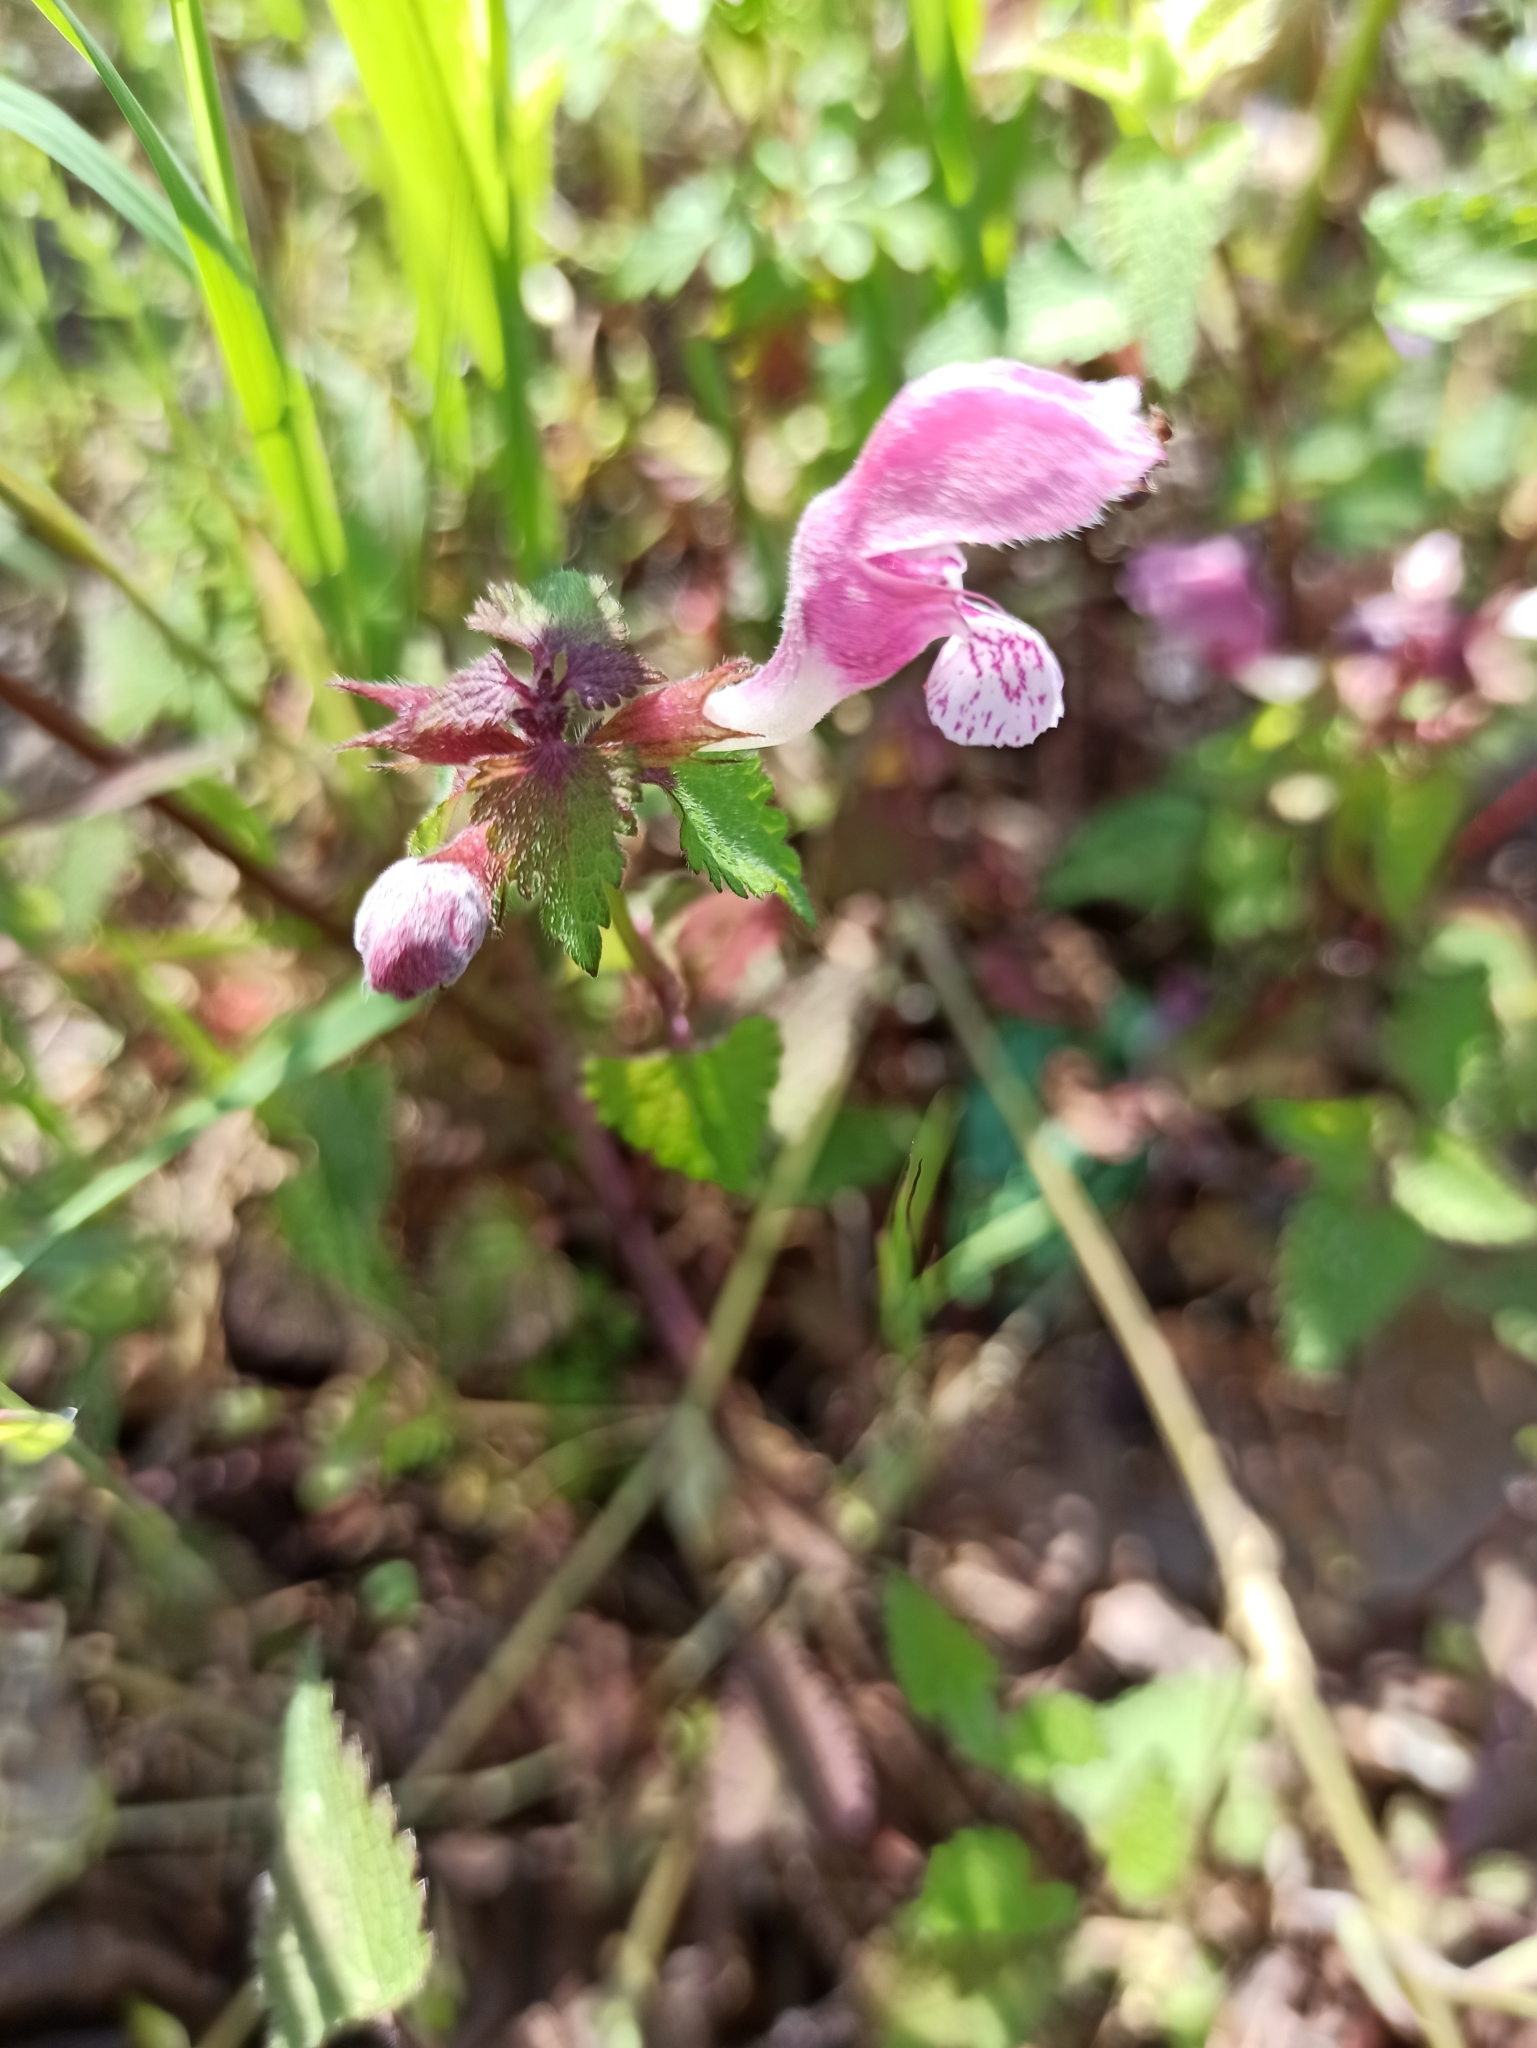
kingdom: Plantae
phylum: Tracheophyta
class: Magnoliopsida
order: Lamiales
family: Lamiaceae
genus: Lamium
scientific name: Lamium maculatum
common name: Spotted dead-nettle
